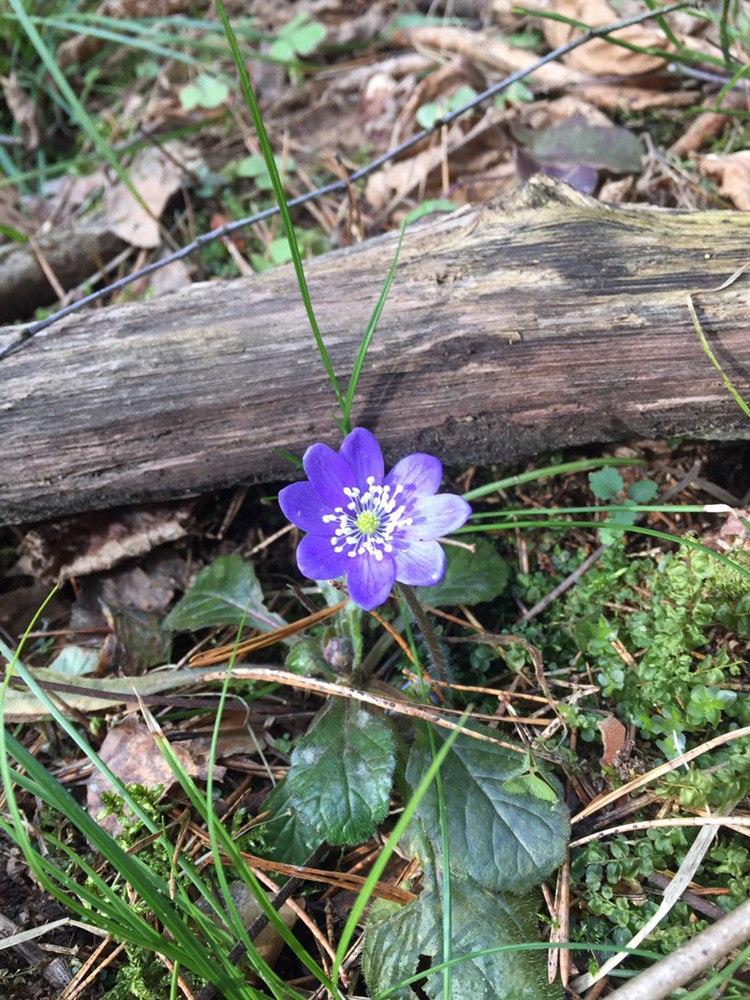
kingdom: Plantae
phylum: Tracheophyta
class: Magnoliopsida
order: Ranunculales
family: Ranunculaceae
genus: Hepatica
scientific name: Hepatica nobilis
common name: Liverleaf
